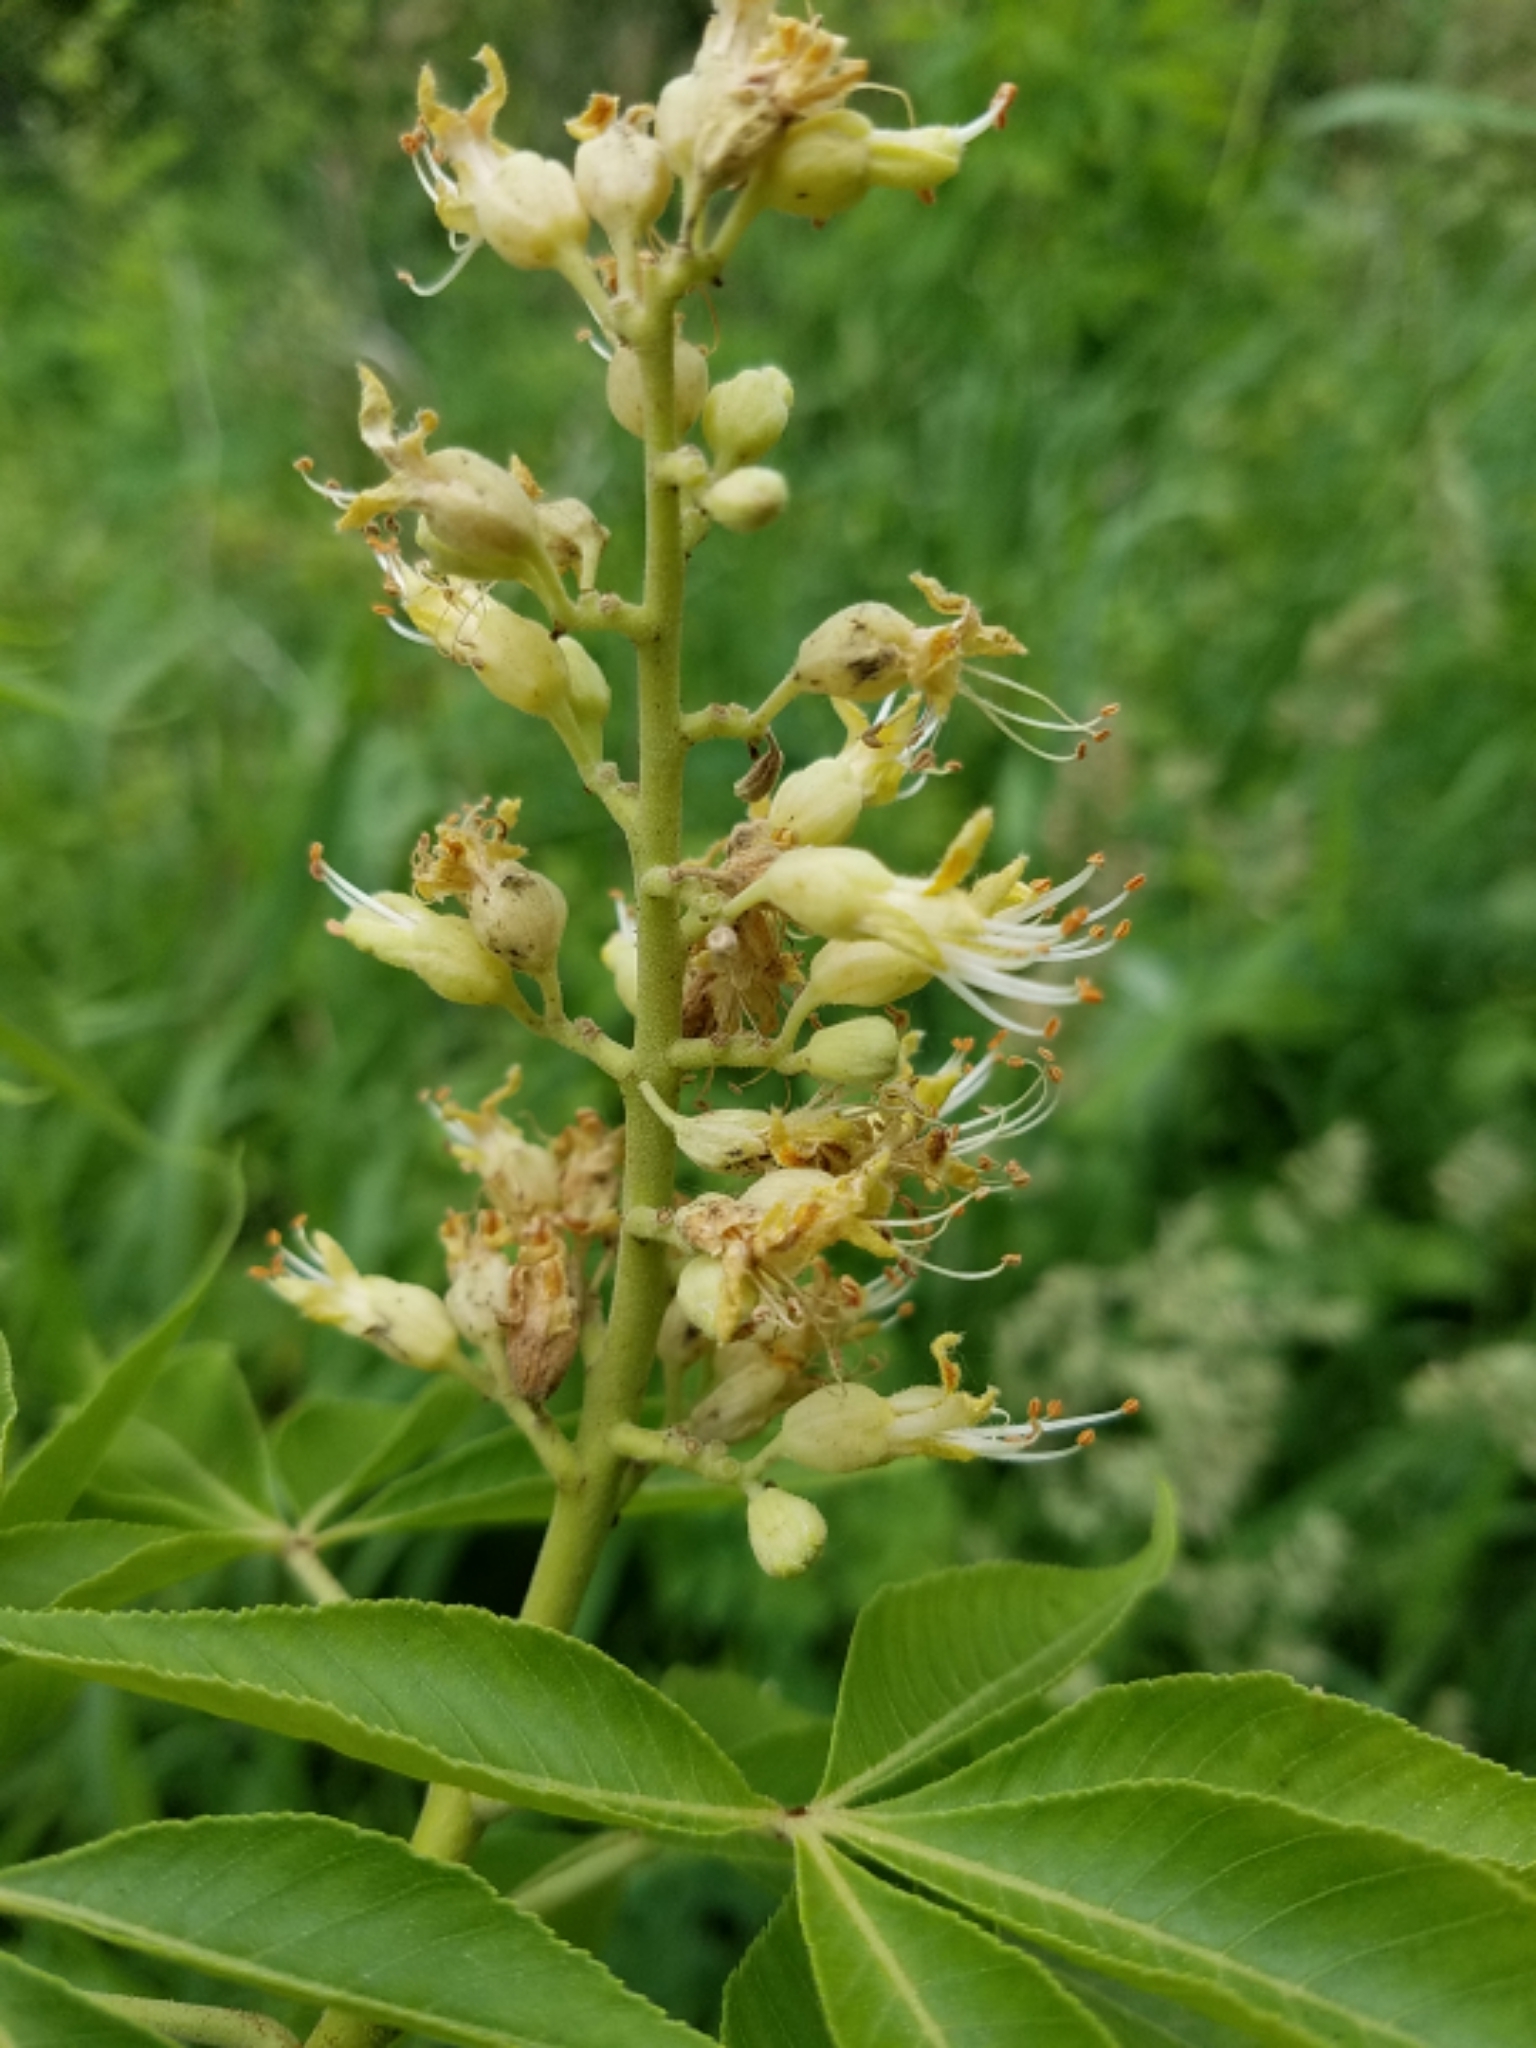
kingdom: Plantae
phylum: Tracheophyta
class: Magnoliopsida
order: Sapindales
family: Sapindaceae
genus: Aesculus
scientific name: Aesculus glabra
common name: Ohio buckeye
